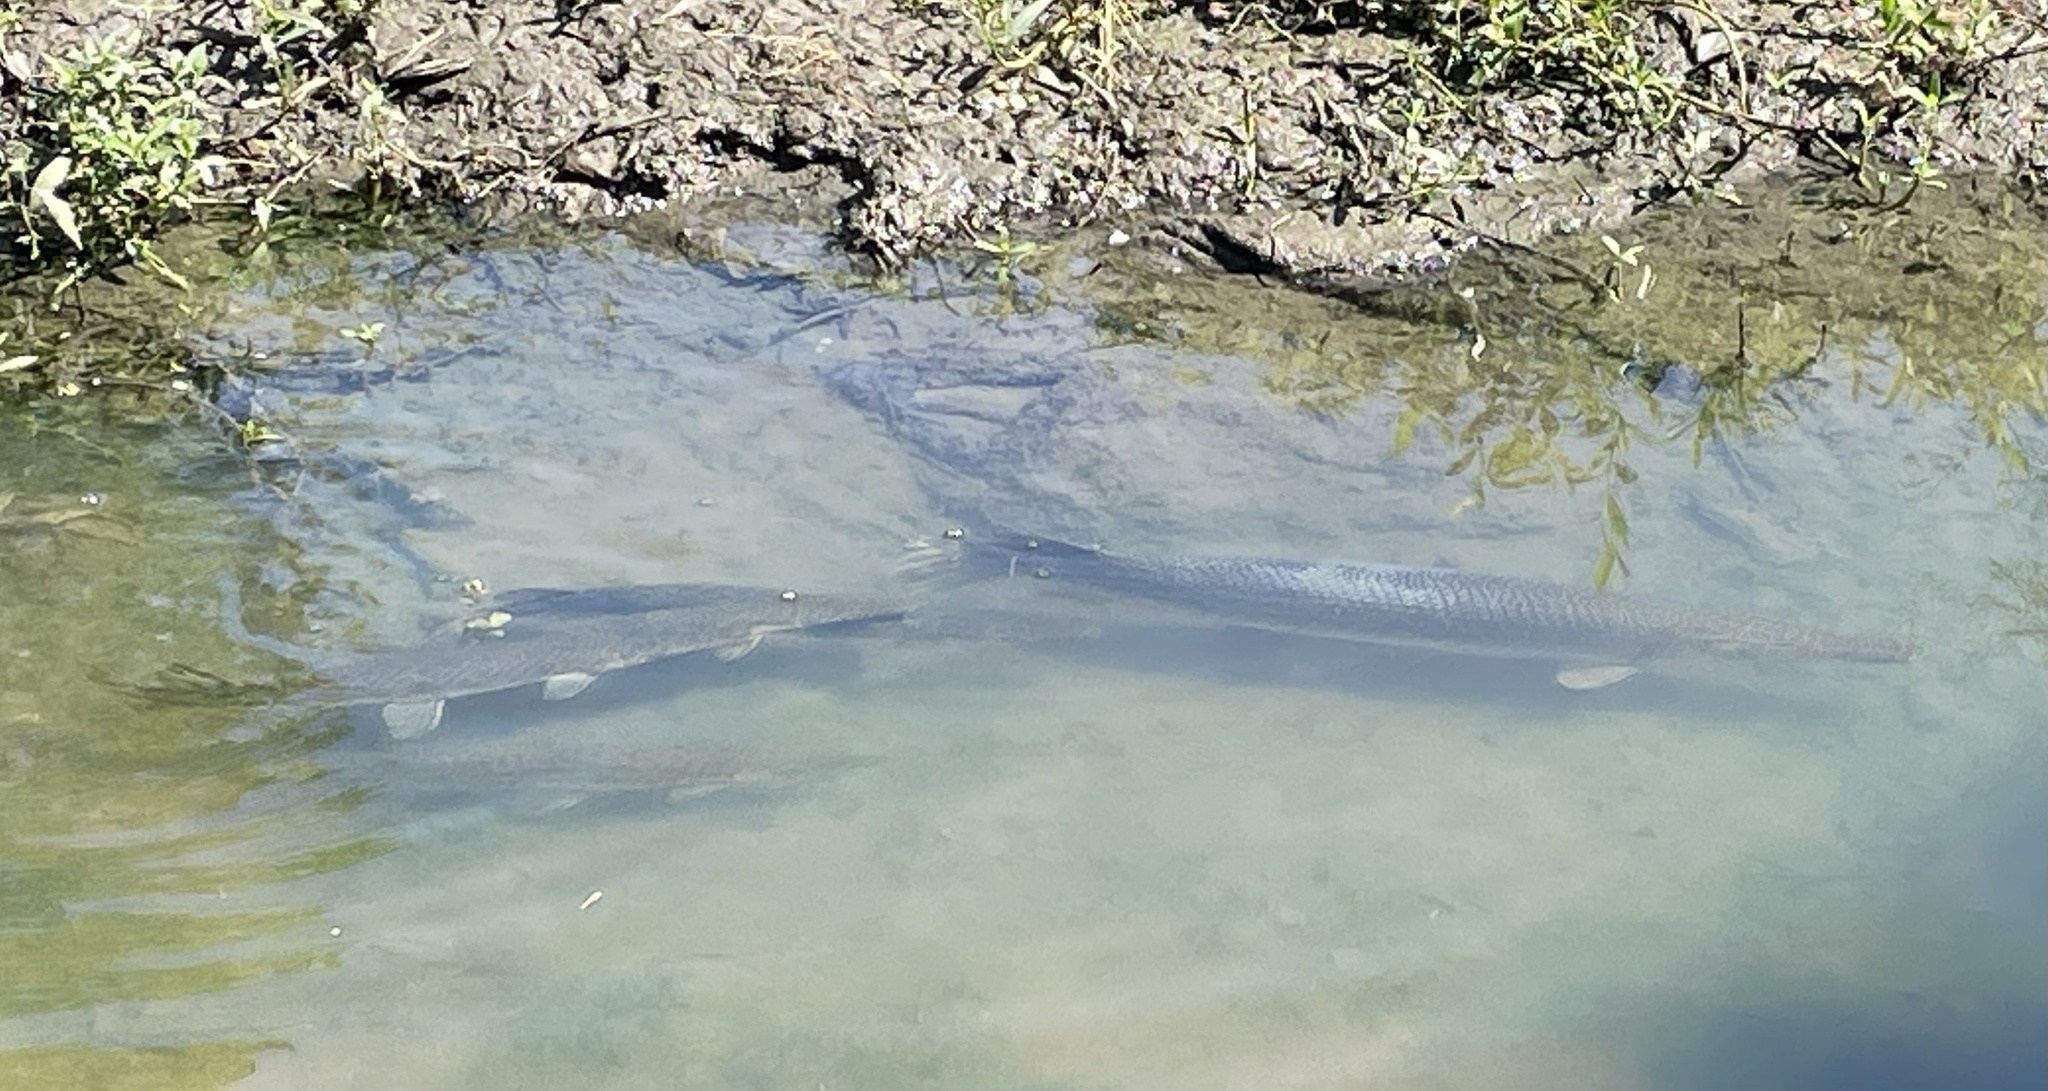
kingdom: Animalia
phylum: Chordata
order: Lepisosteiformes
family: Lepisosteidae
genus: Lepisosteus
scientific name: Lepisosteus oculatus
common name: Spotted gar
